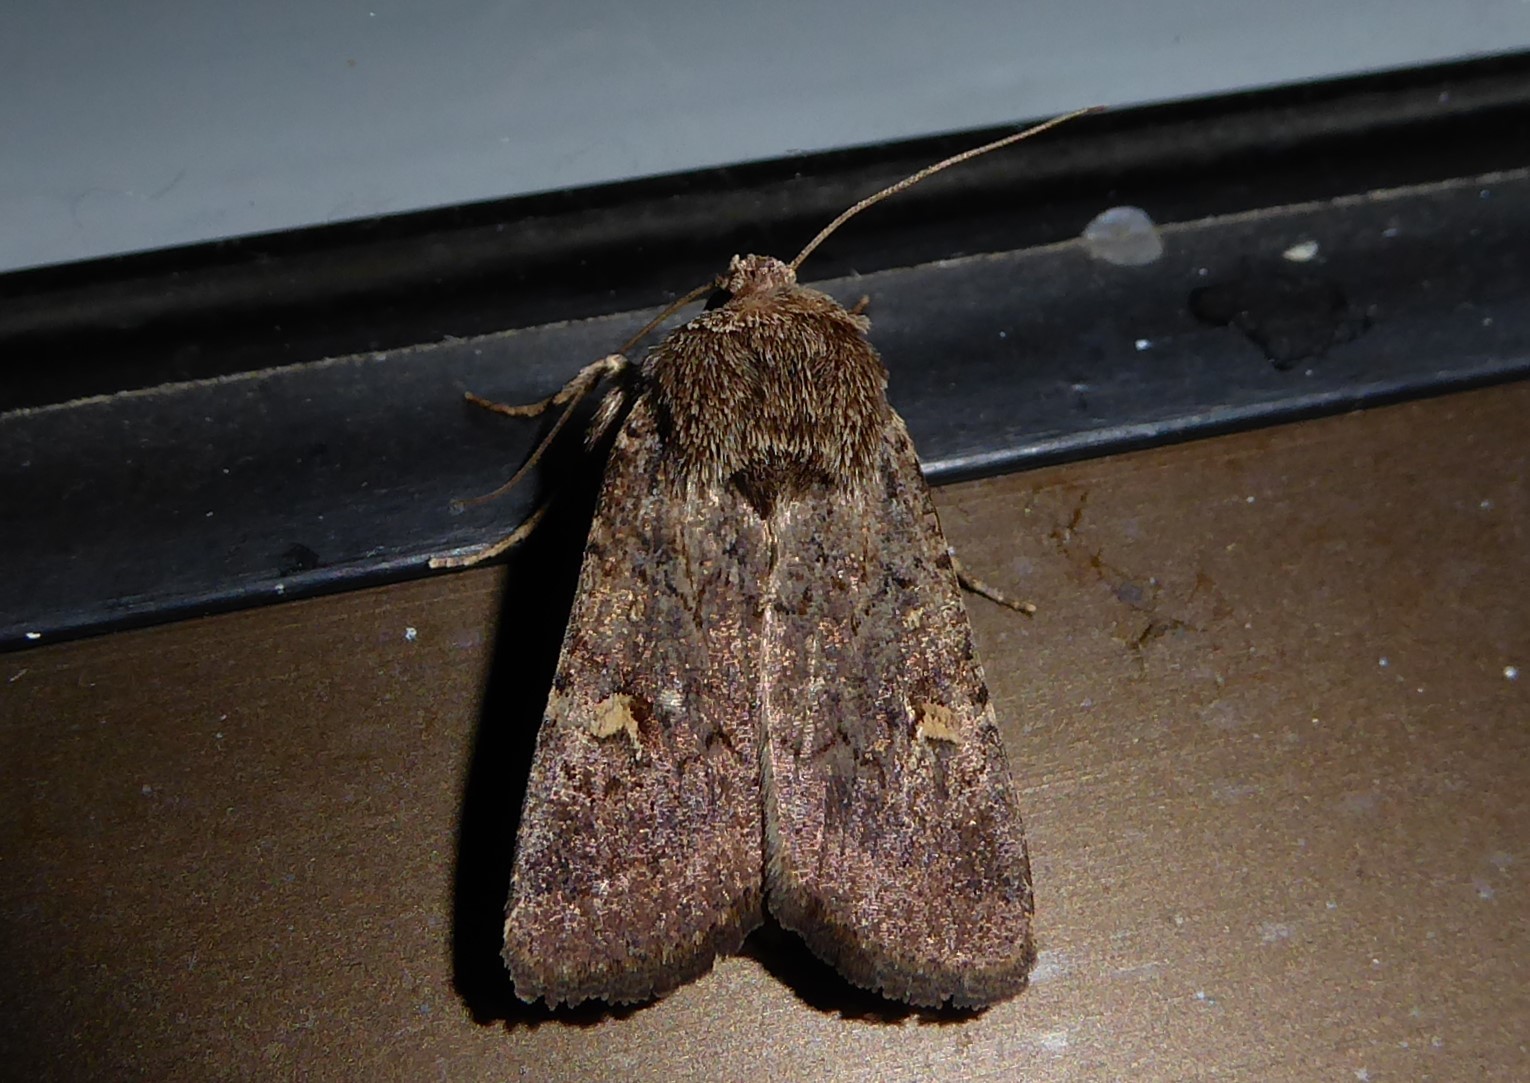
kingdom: Animalia
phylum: Arthropoda
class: Insecta
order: Lepidoptera
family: Noctuidae
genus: Proteuxoa
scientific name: Proteuxoa tetronycha
